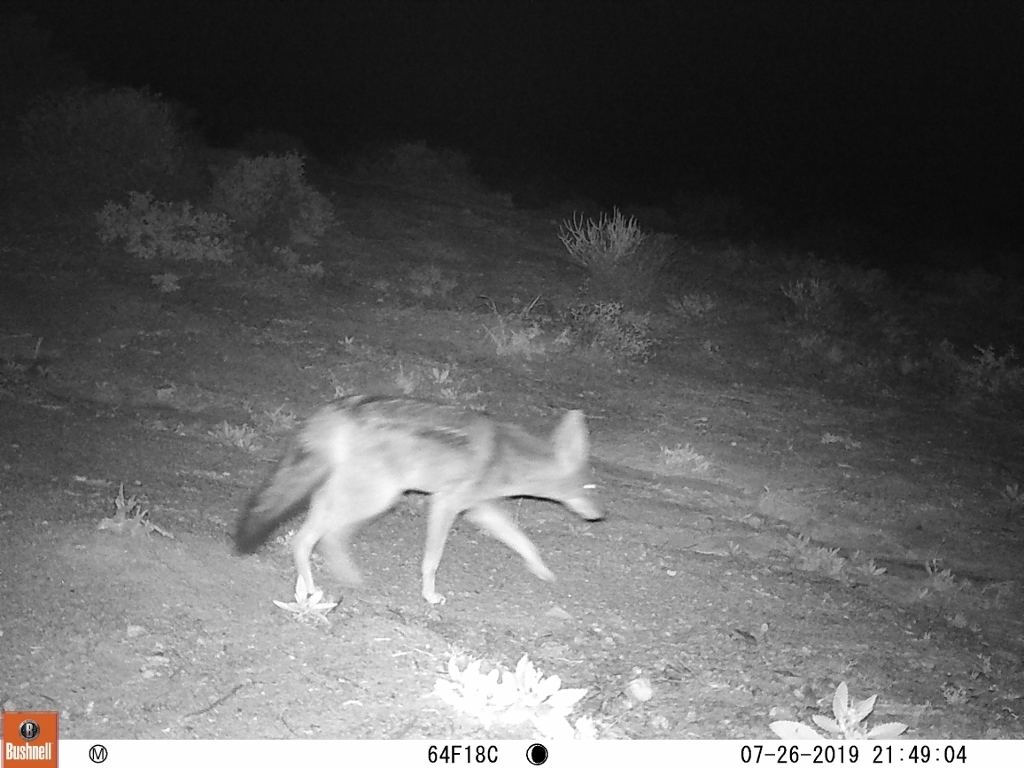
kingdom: Animalia
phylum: Chordata
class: Mammalia
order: Carnivora
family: Canidae
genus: Lupulella
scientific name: Lupulella
